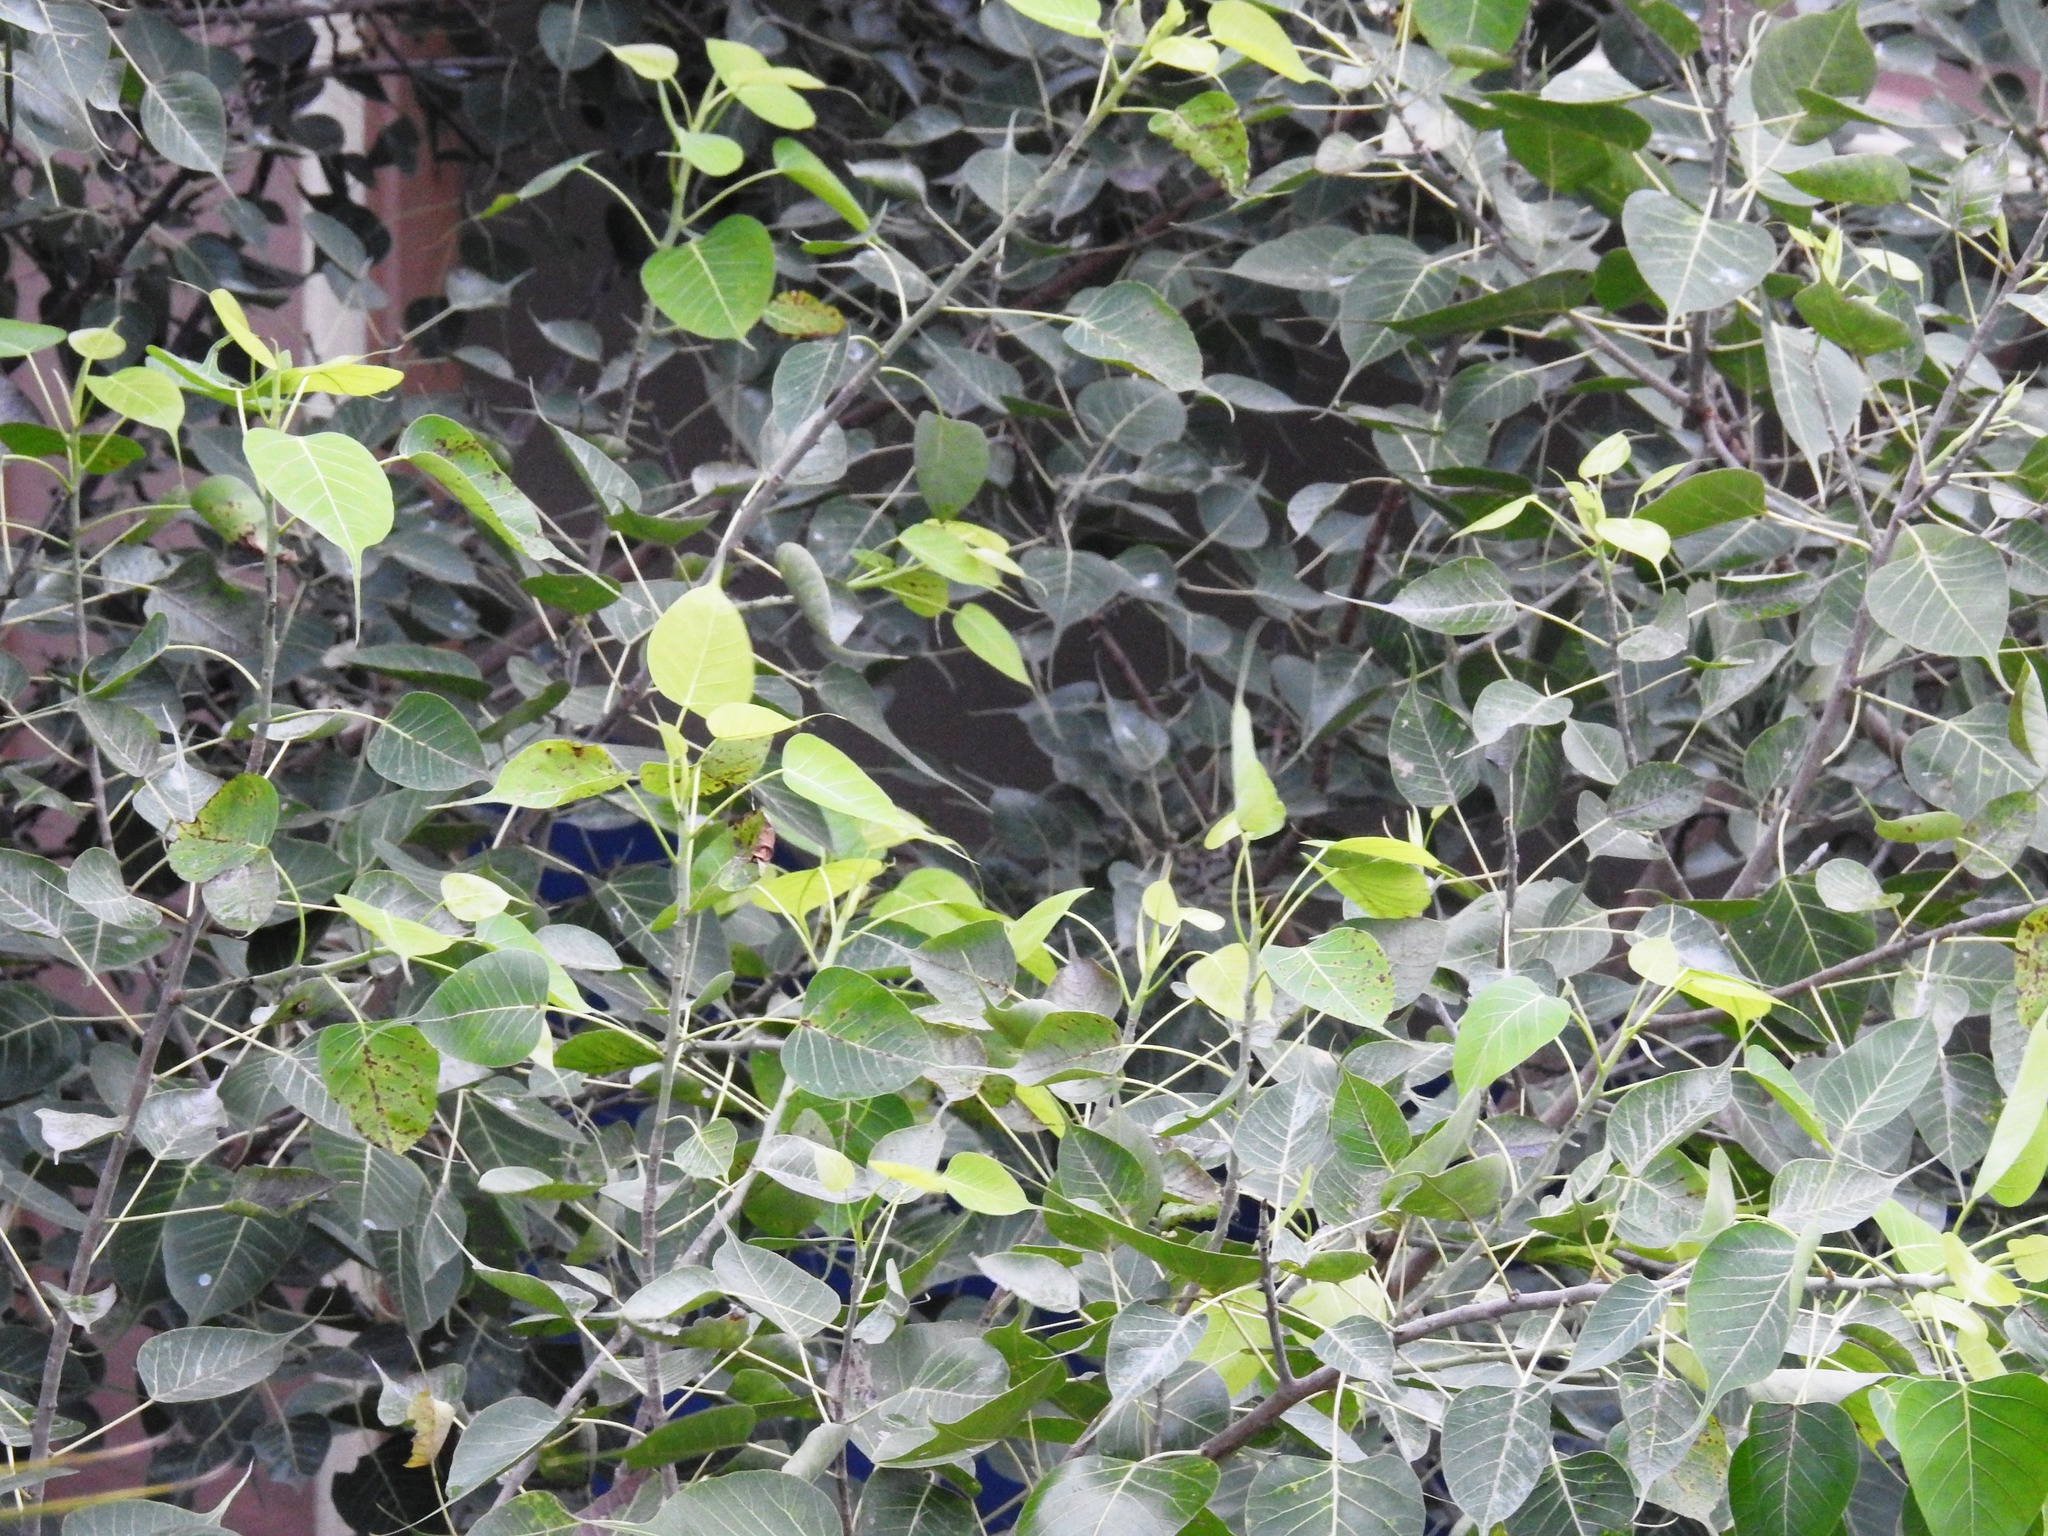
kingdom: Plantae
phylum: Tracheophyta
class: Magnoliopsida
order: Rosales
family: Moraceae
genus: Ficus
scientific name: Ficus religiosa
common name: Bodhi tree
